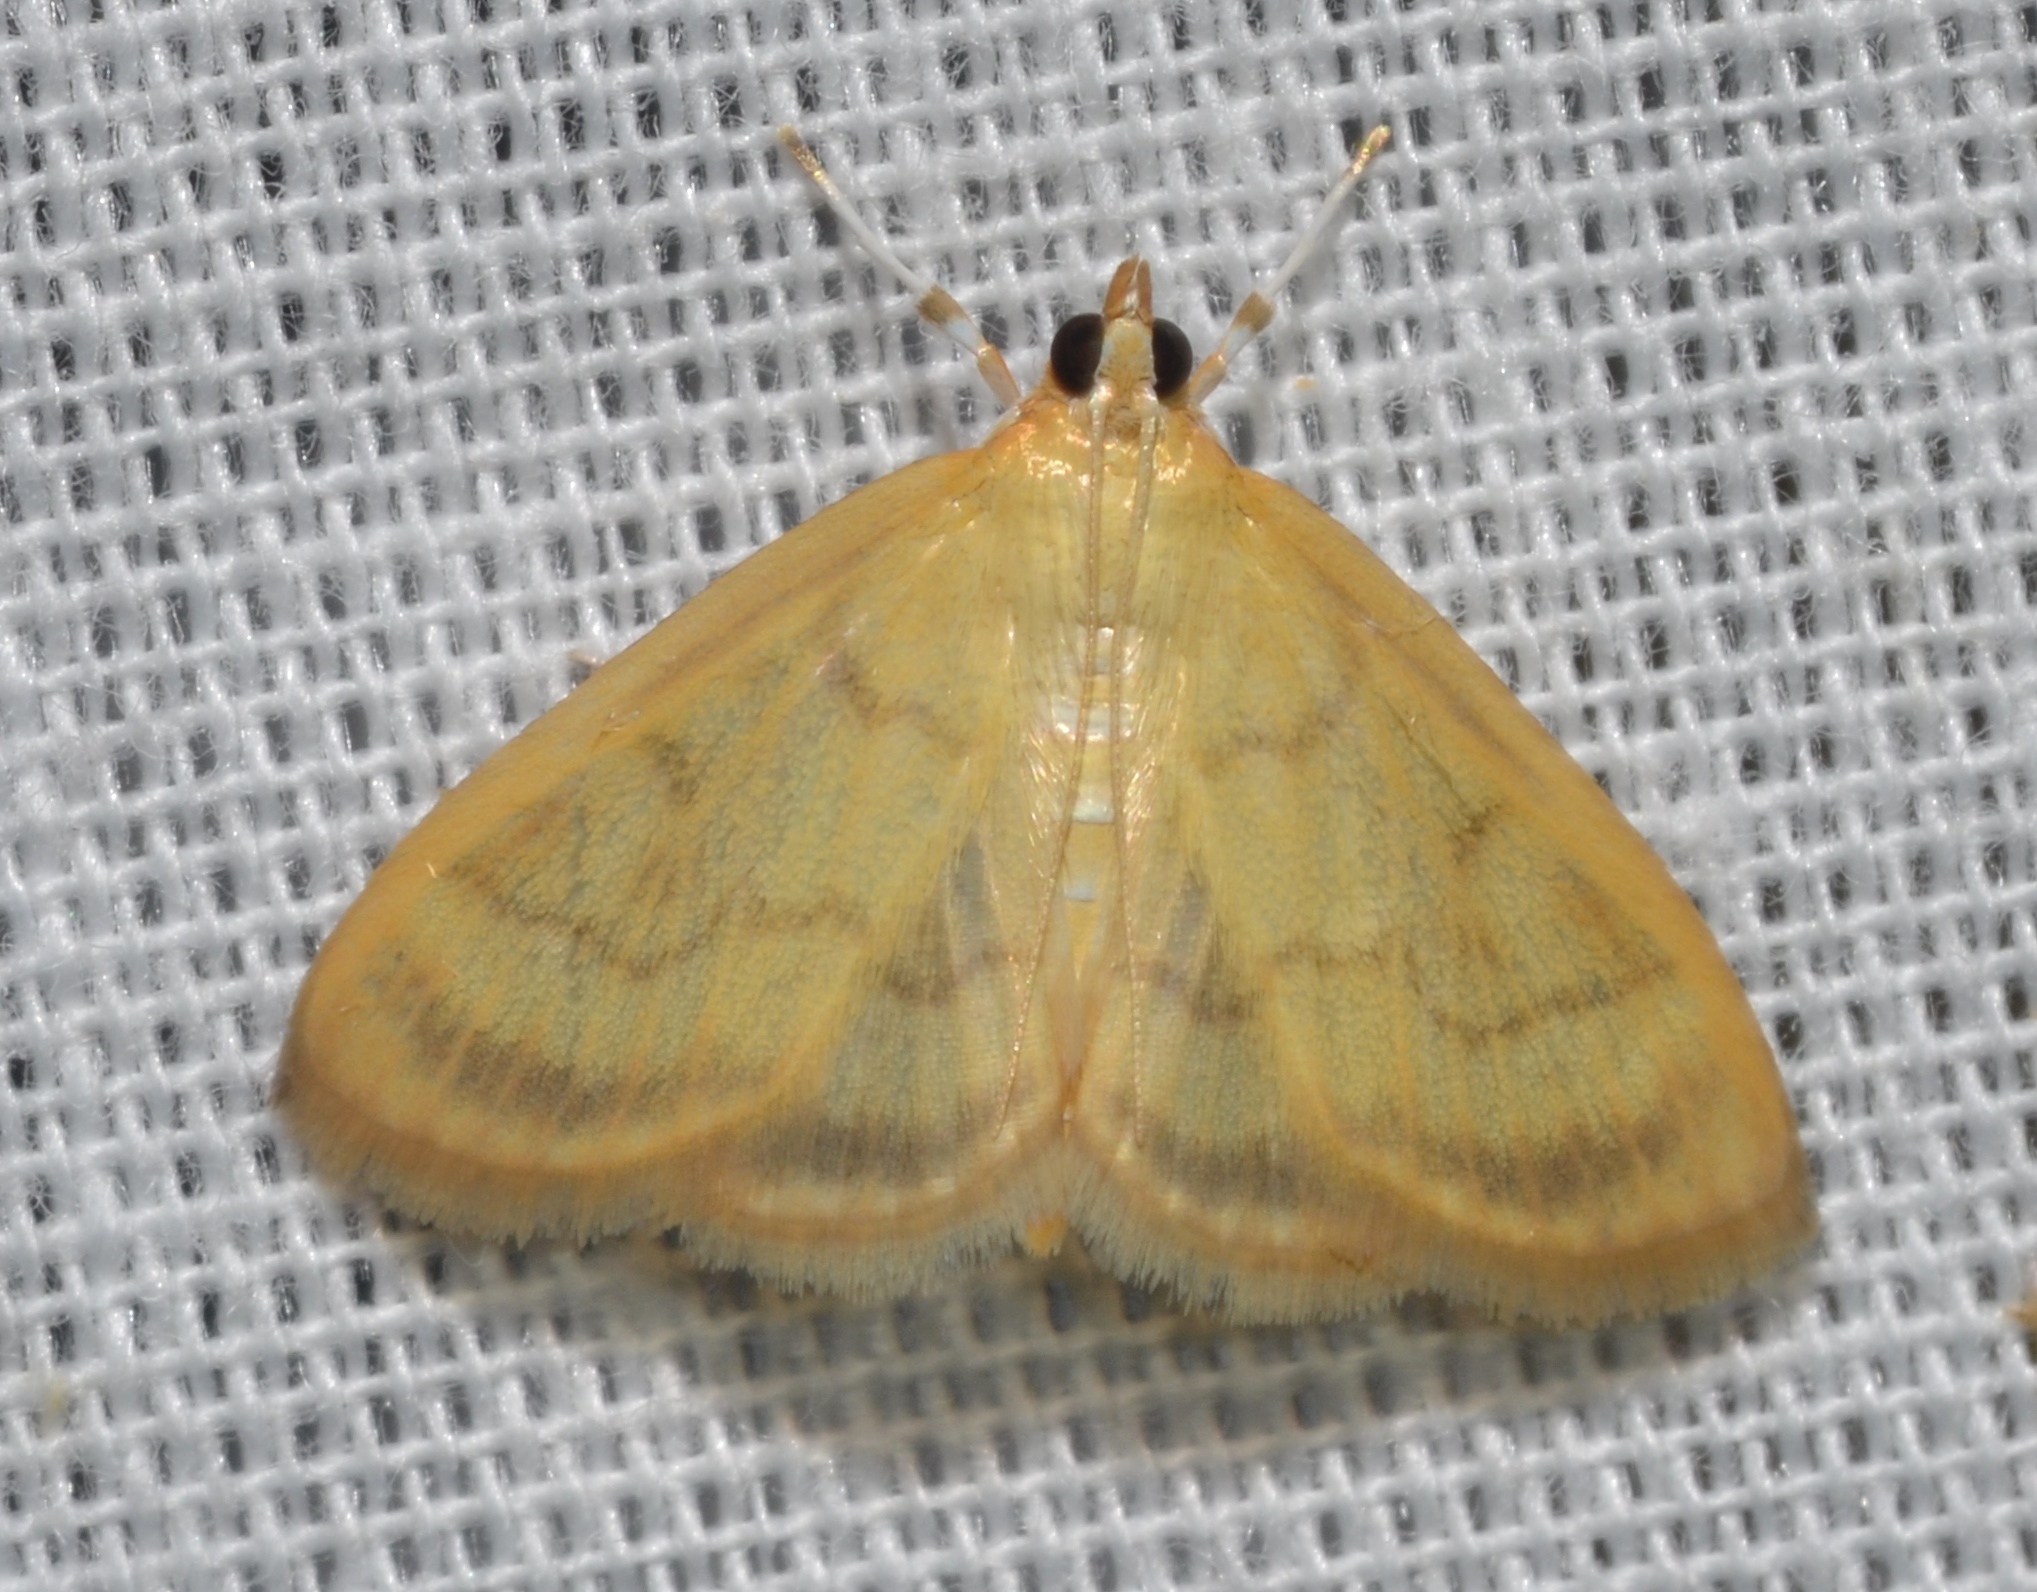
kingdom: Animalia
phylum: Arthropoda
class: Insecta
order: Lepidoptera
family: Crambidae
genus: Crocidophora
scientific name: Crocidophora tuberculalis
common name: Pale-winged crocidiphora moth
